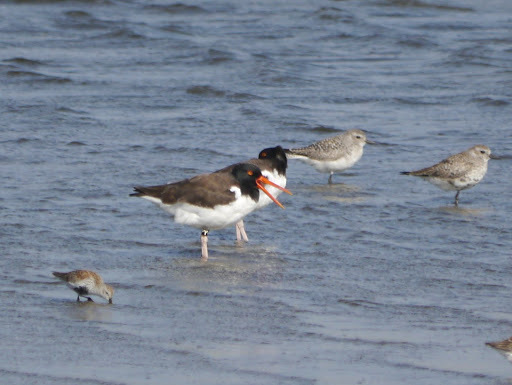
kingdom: Animalia
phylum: Chordata
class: Aves
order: Charadriiformes
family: Haematopodidae
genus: Haematopus
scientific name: Haematopus palliatus
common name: American oystercatcher
